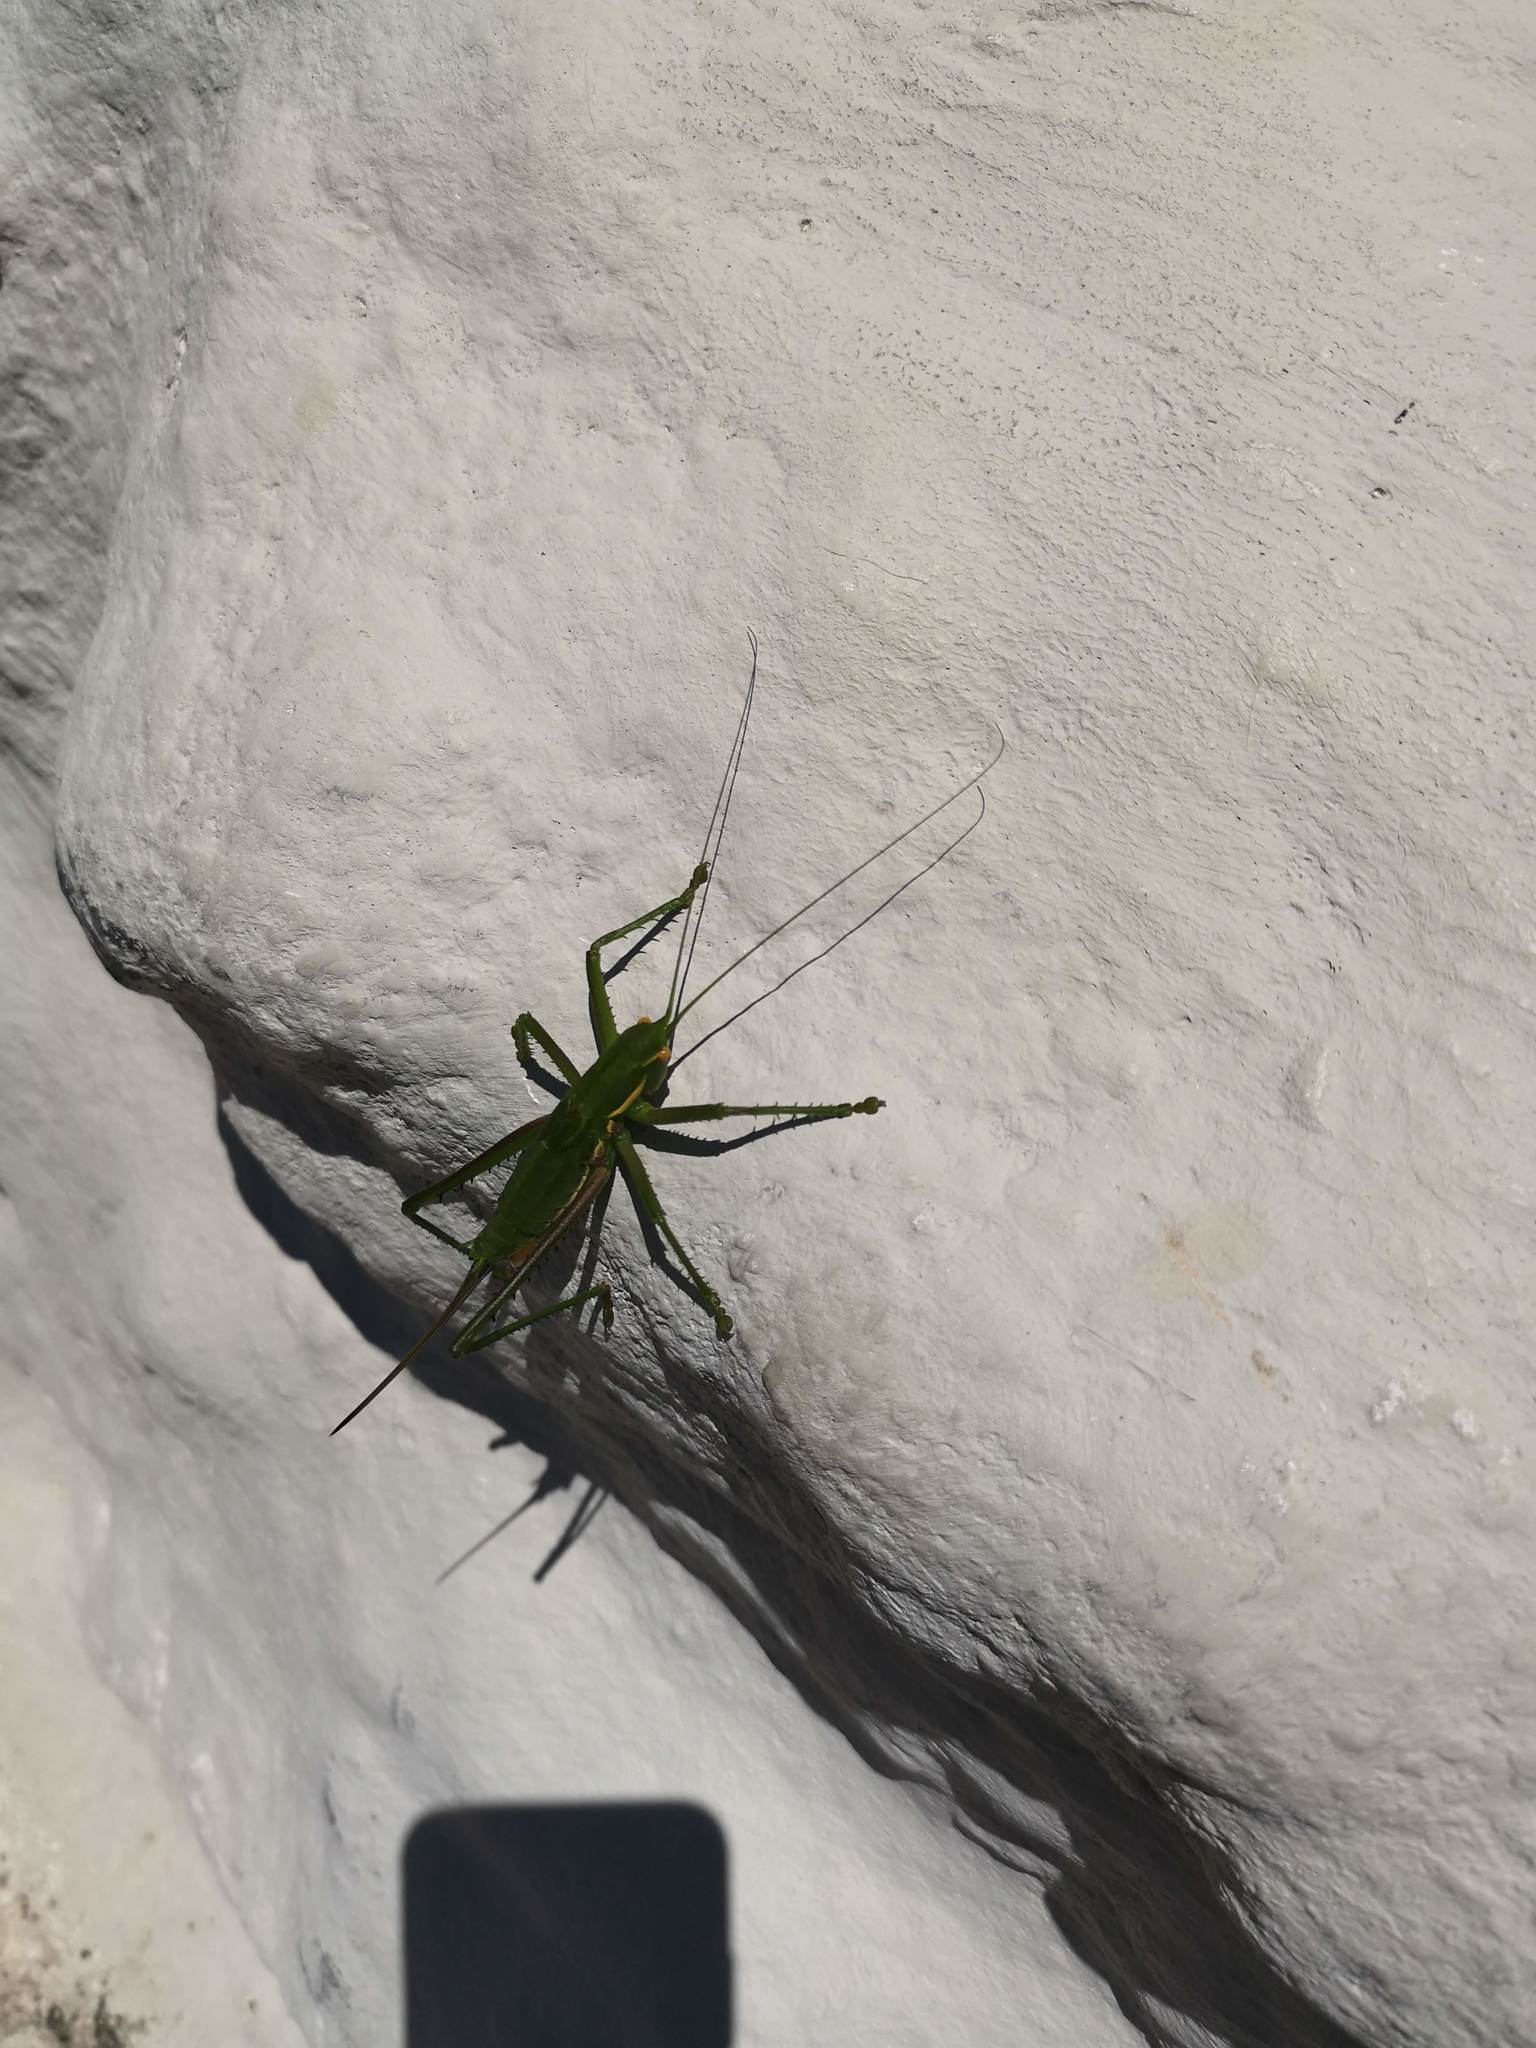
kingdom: Animalia
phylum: Arthropoda
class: Insecta
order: Orthoptera
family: Tettigoniidae
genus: Hemisaga
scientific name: Hemisaga denticulata
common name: Common sluggish katydid
